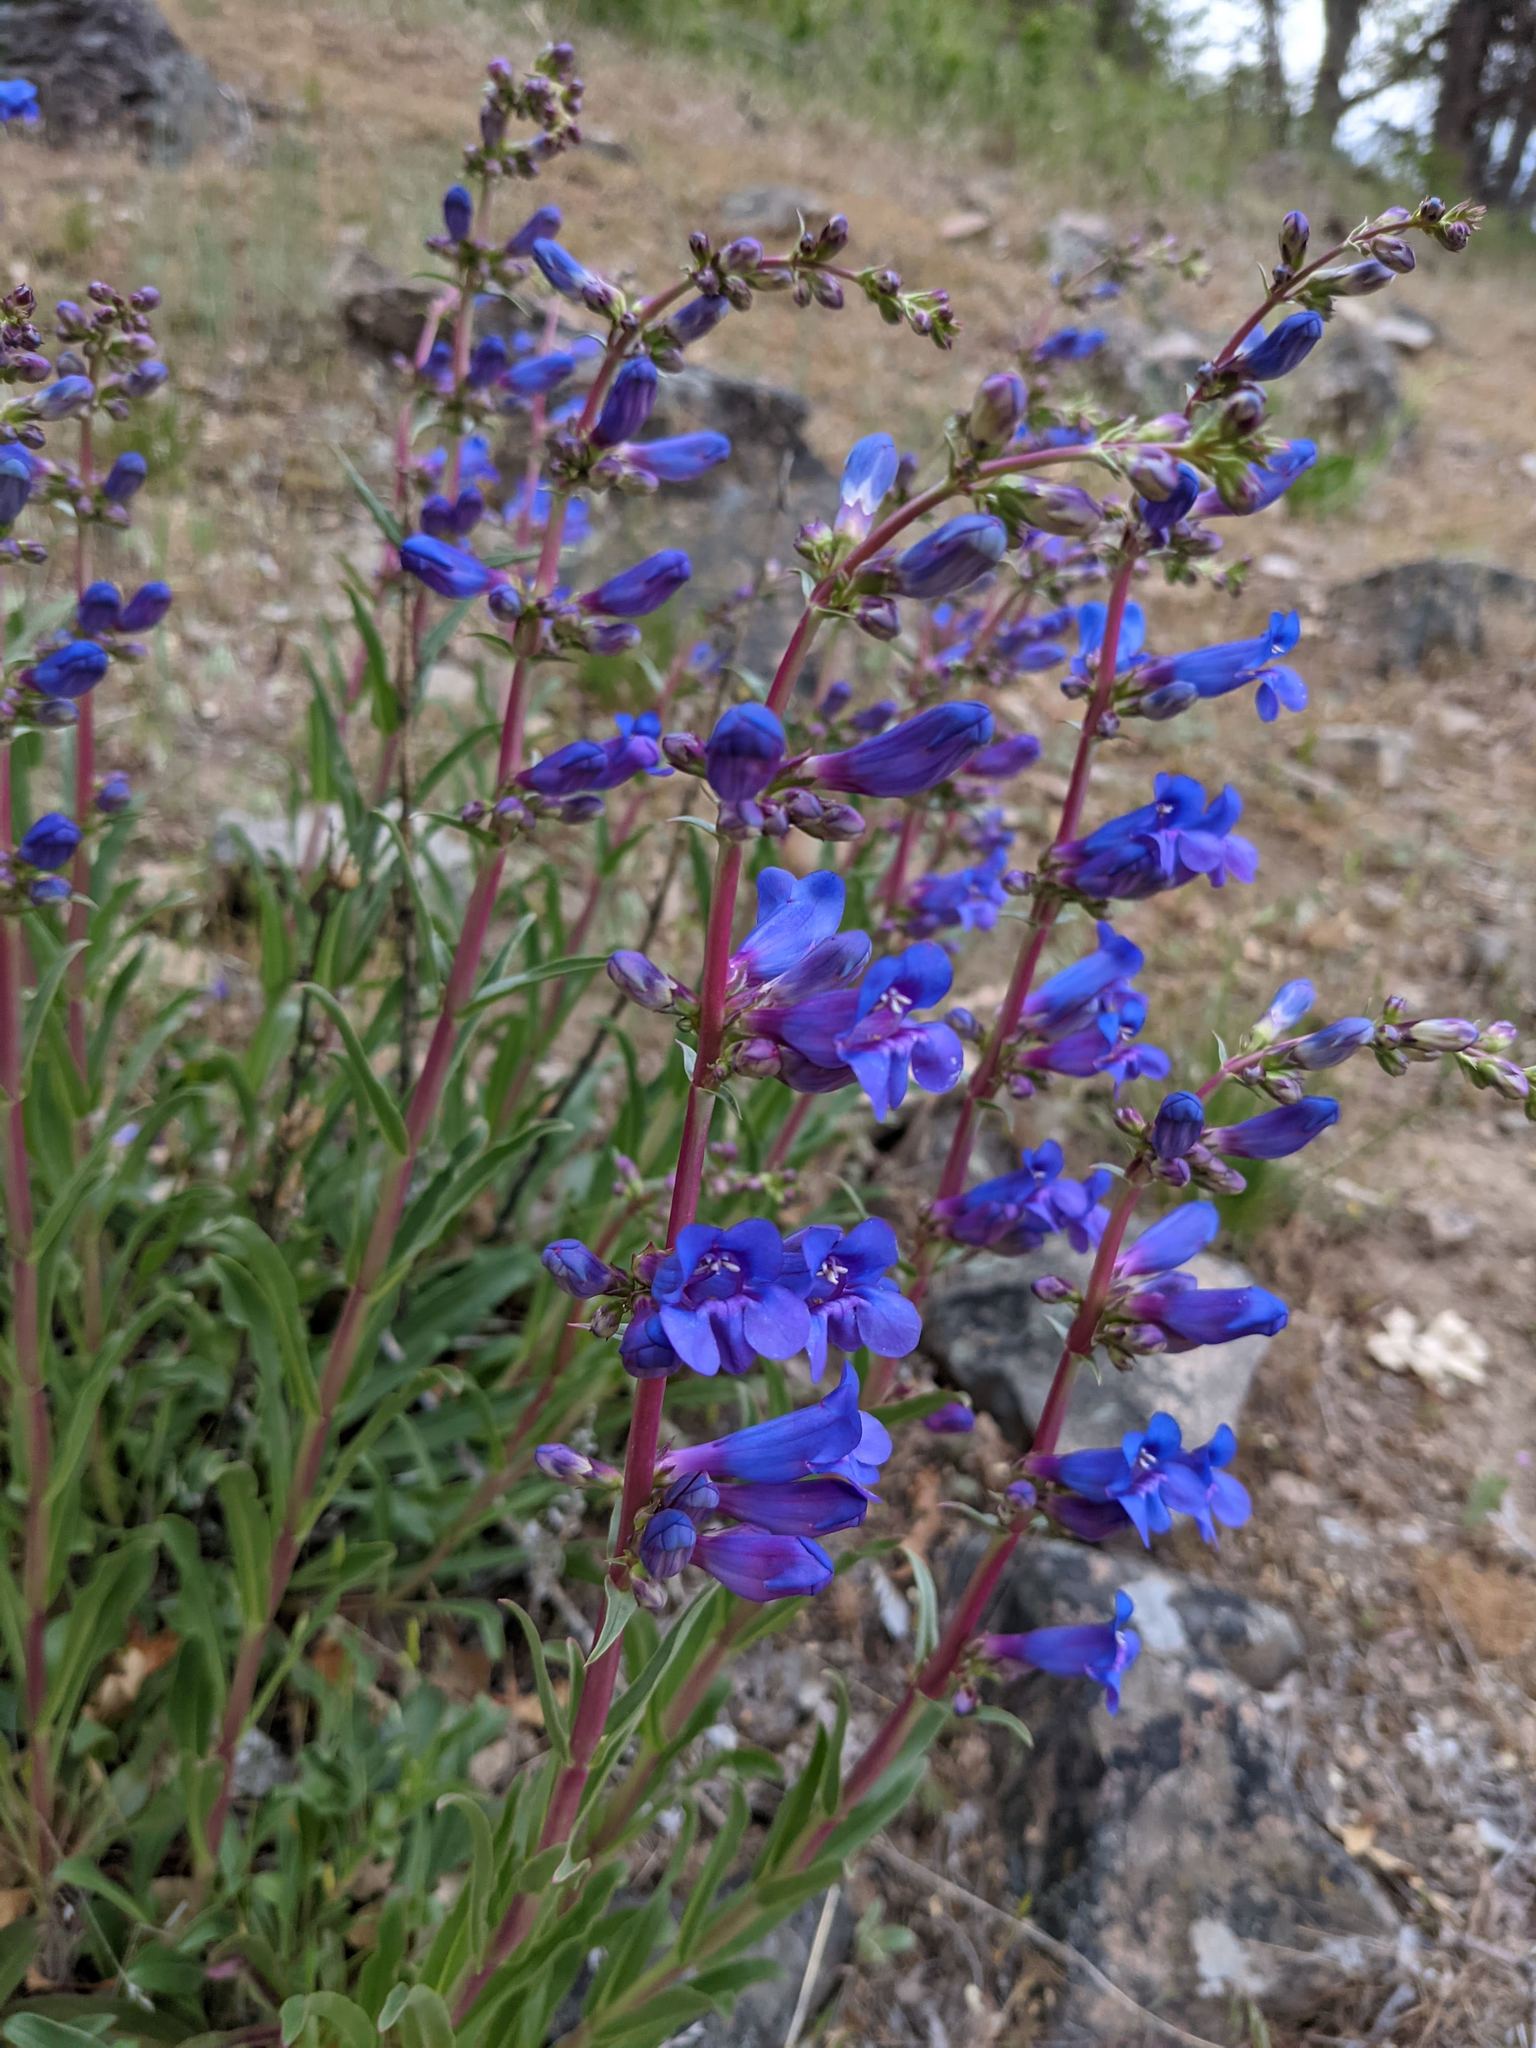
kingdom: Plantae
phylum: Tracheophyta
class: Magnoliopsida
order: Lamiales
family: Plantaginaceae
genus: Penstemon
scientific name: Penstemon speciosus
